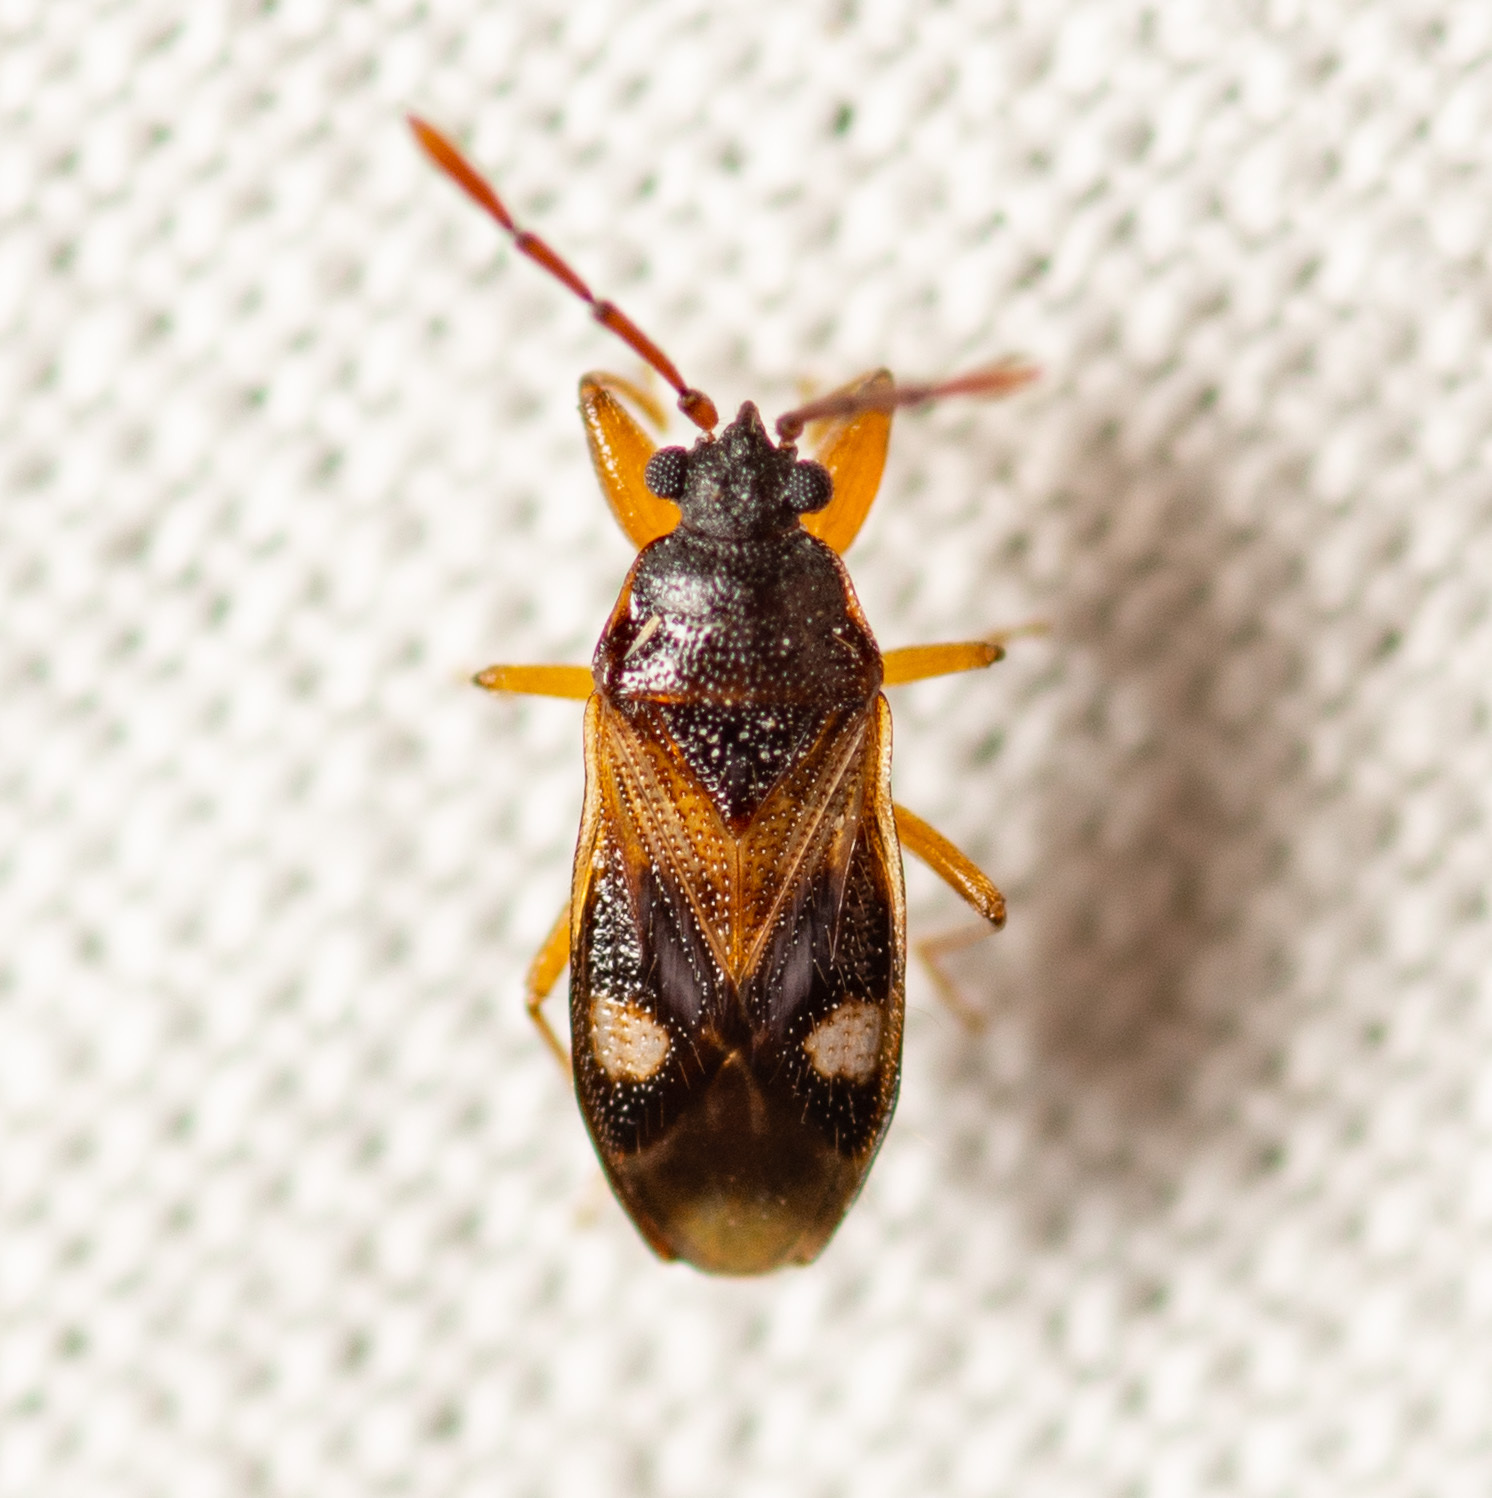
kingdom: Animalia
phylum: Arthropoda
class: Insecta
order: Hemiptera
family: Rhyparochromidae
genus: Tempyra
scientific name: Tempyra biguttula
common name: Seed bug
